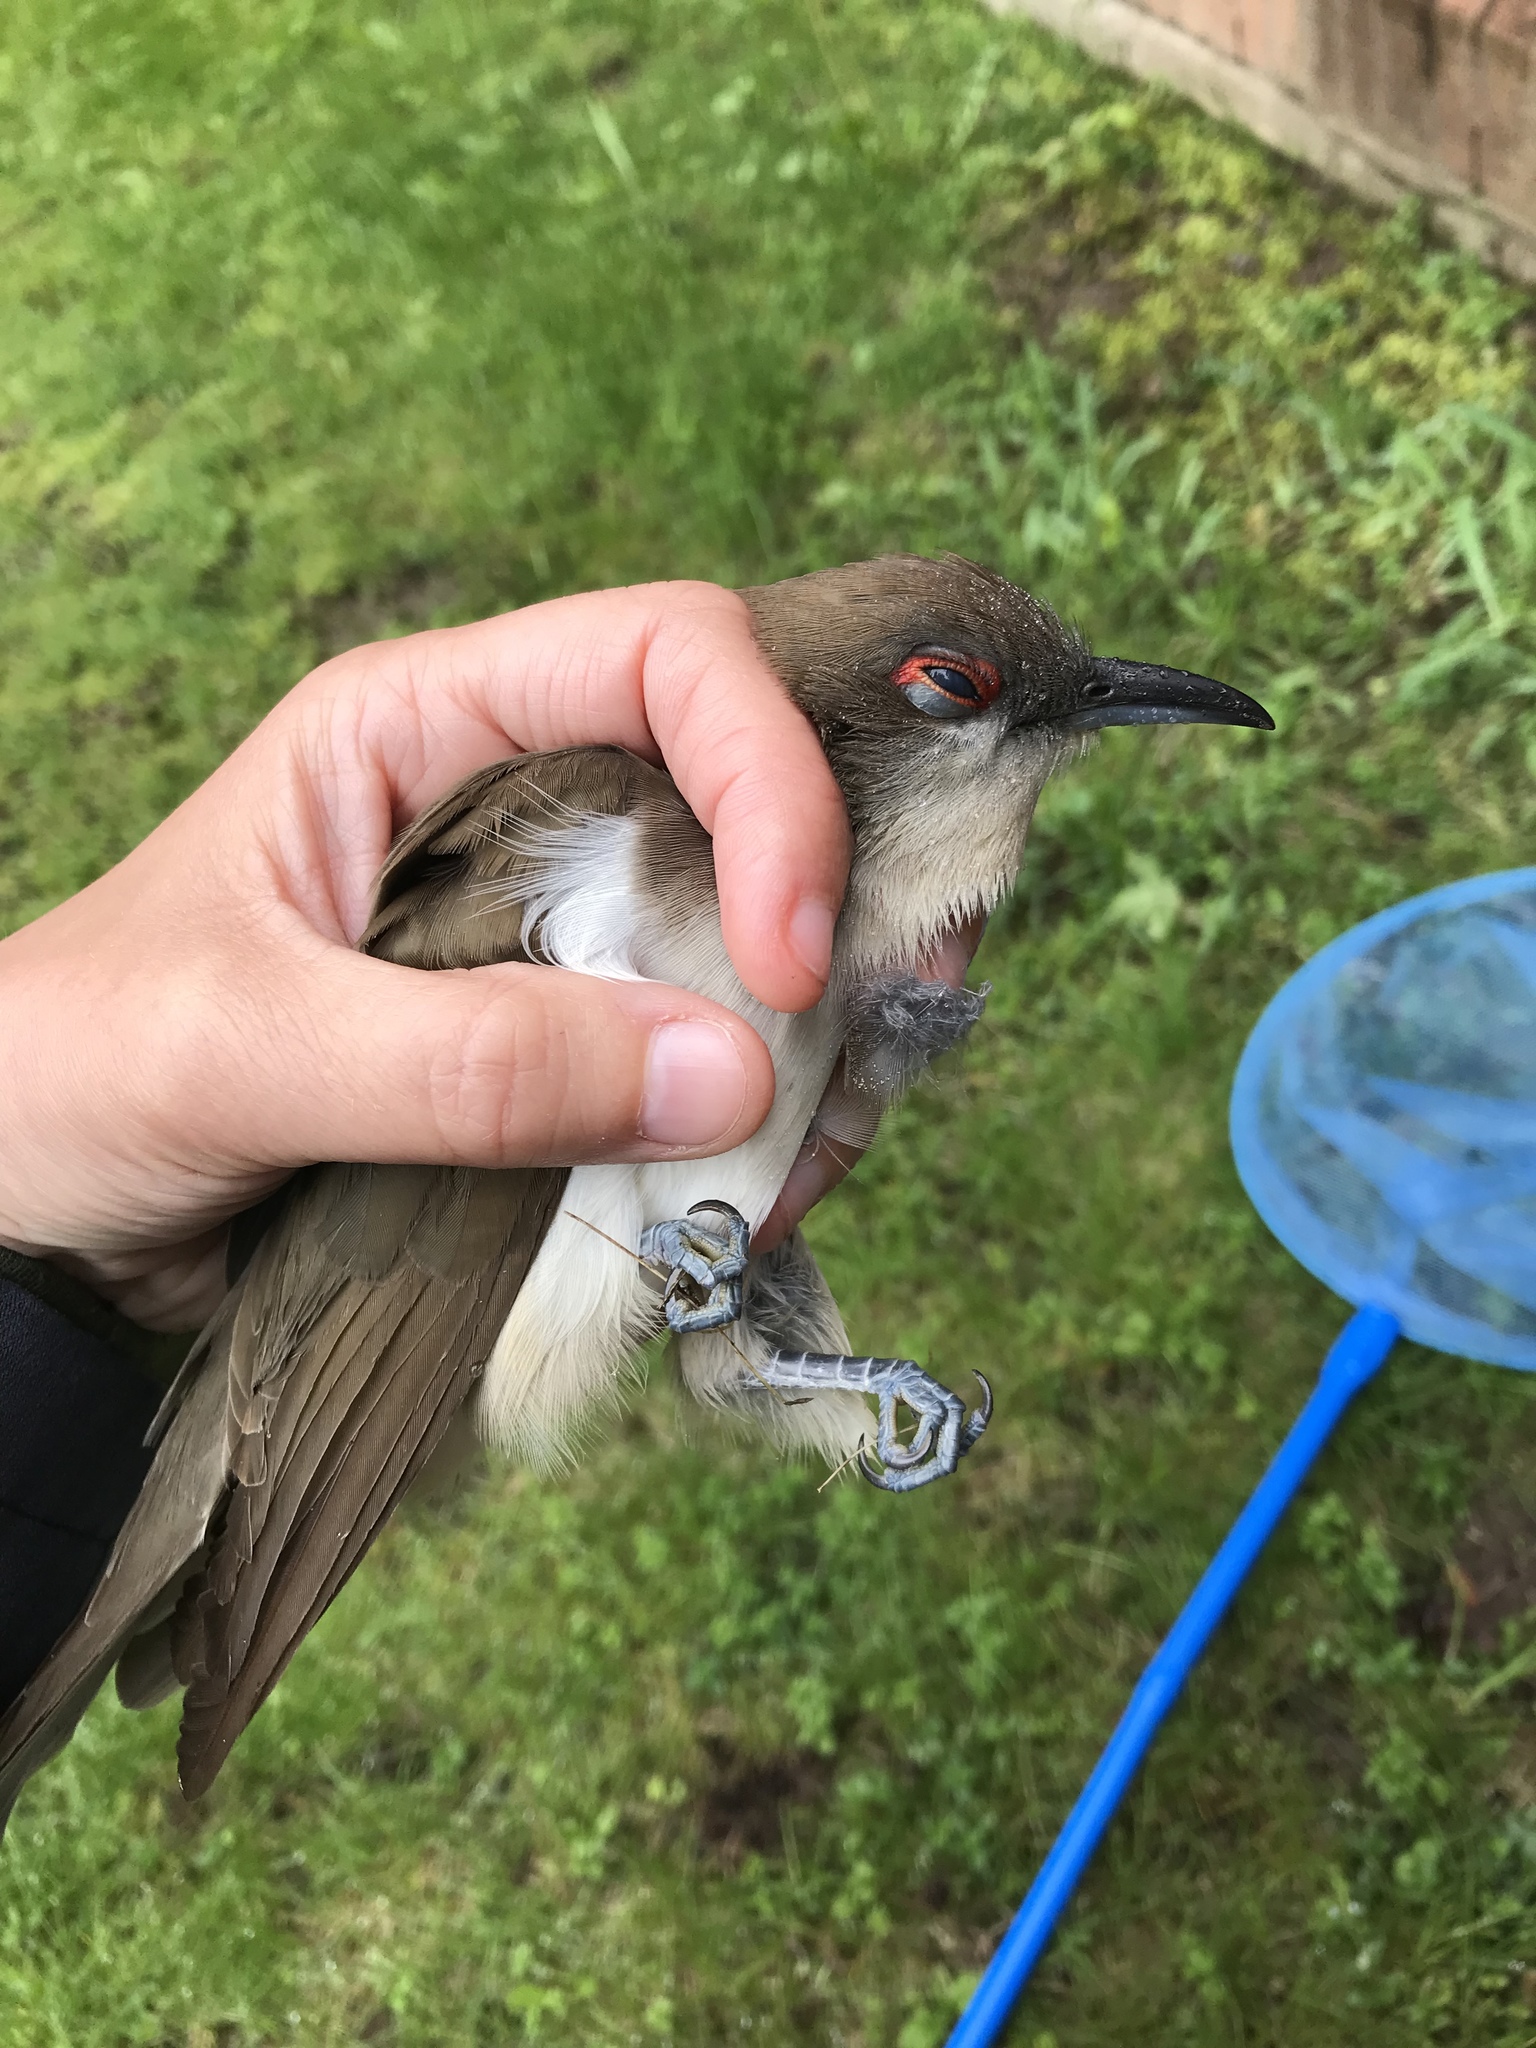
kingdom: Animalia
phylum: Chordata
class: Aves
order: Cuculiformes
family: Cuculidae
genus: Coccyzus
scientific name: Coccyzus erythropthalmus
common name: Black-billed cuckoo
